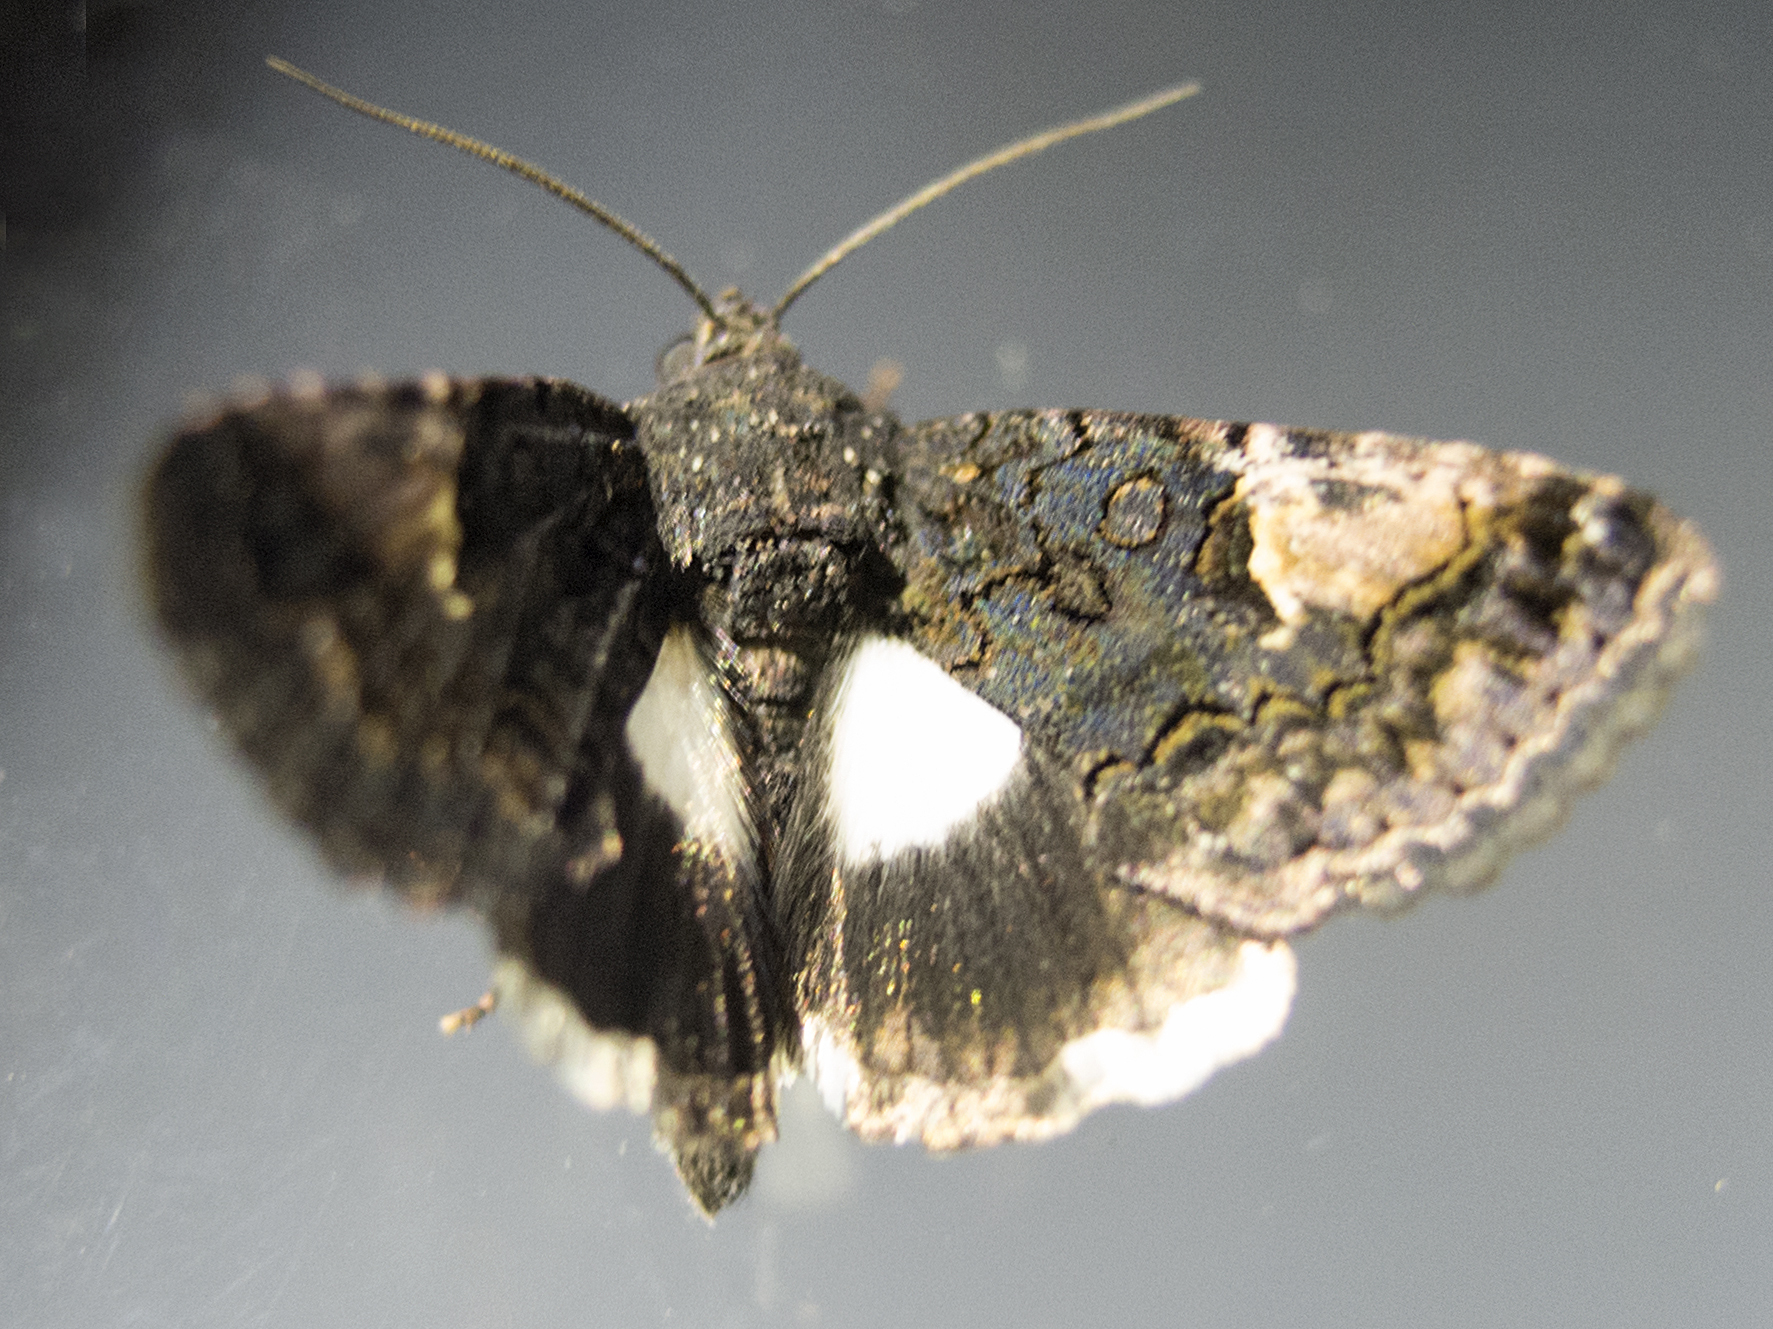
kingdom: Animalia
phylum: Arthropoda
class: Insecta
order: Lepidoptera
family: Noctuidae
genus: Aedia
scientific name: Aedia funesta
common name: The druid
